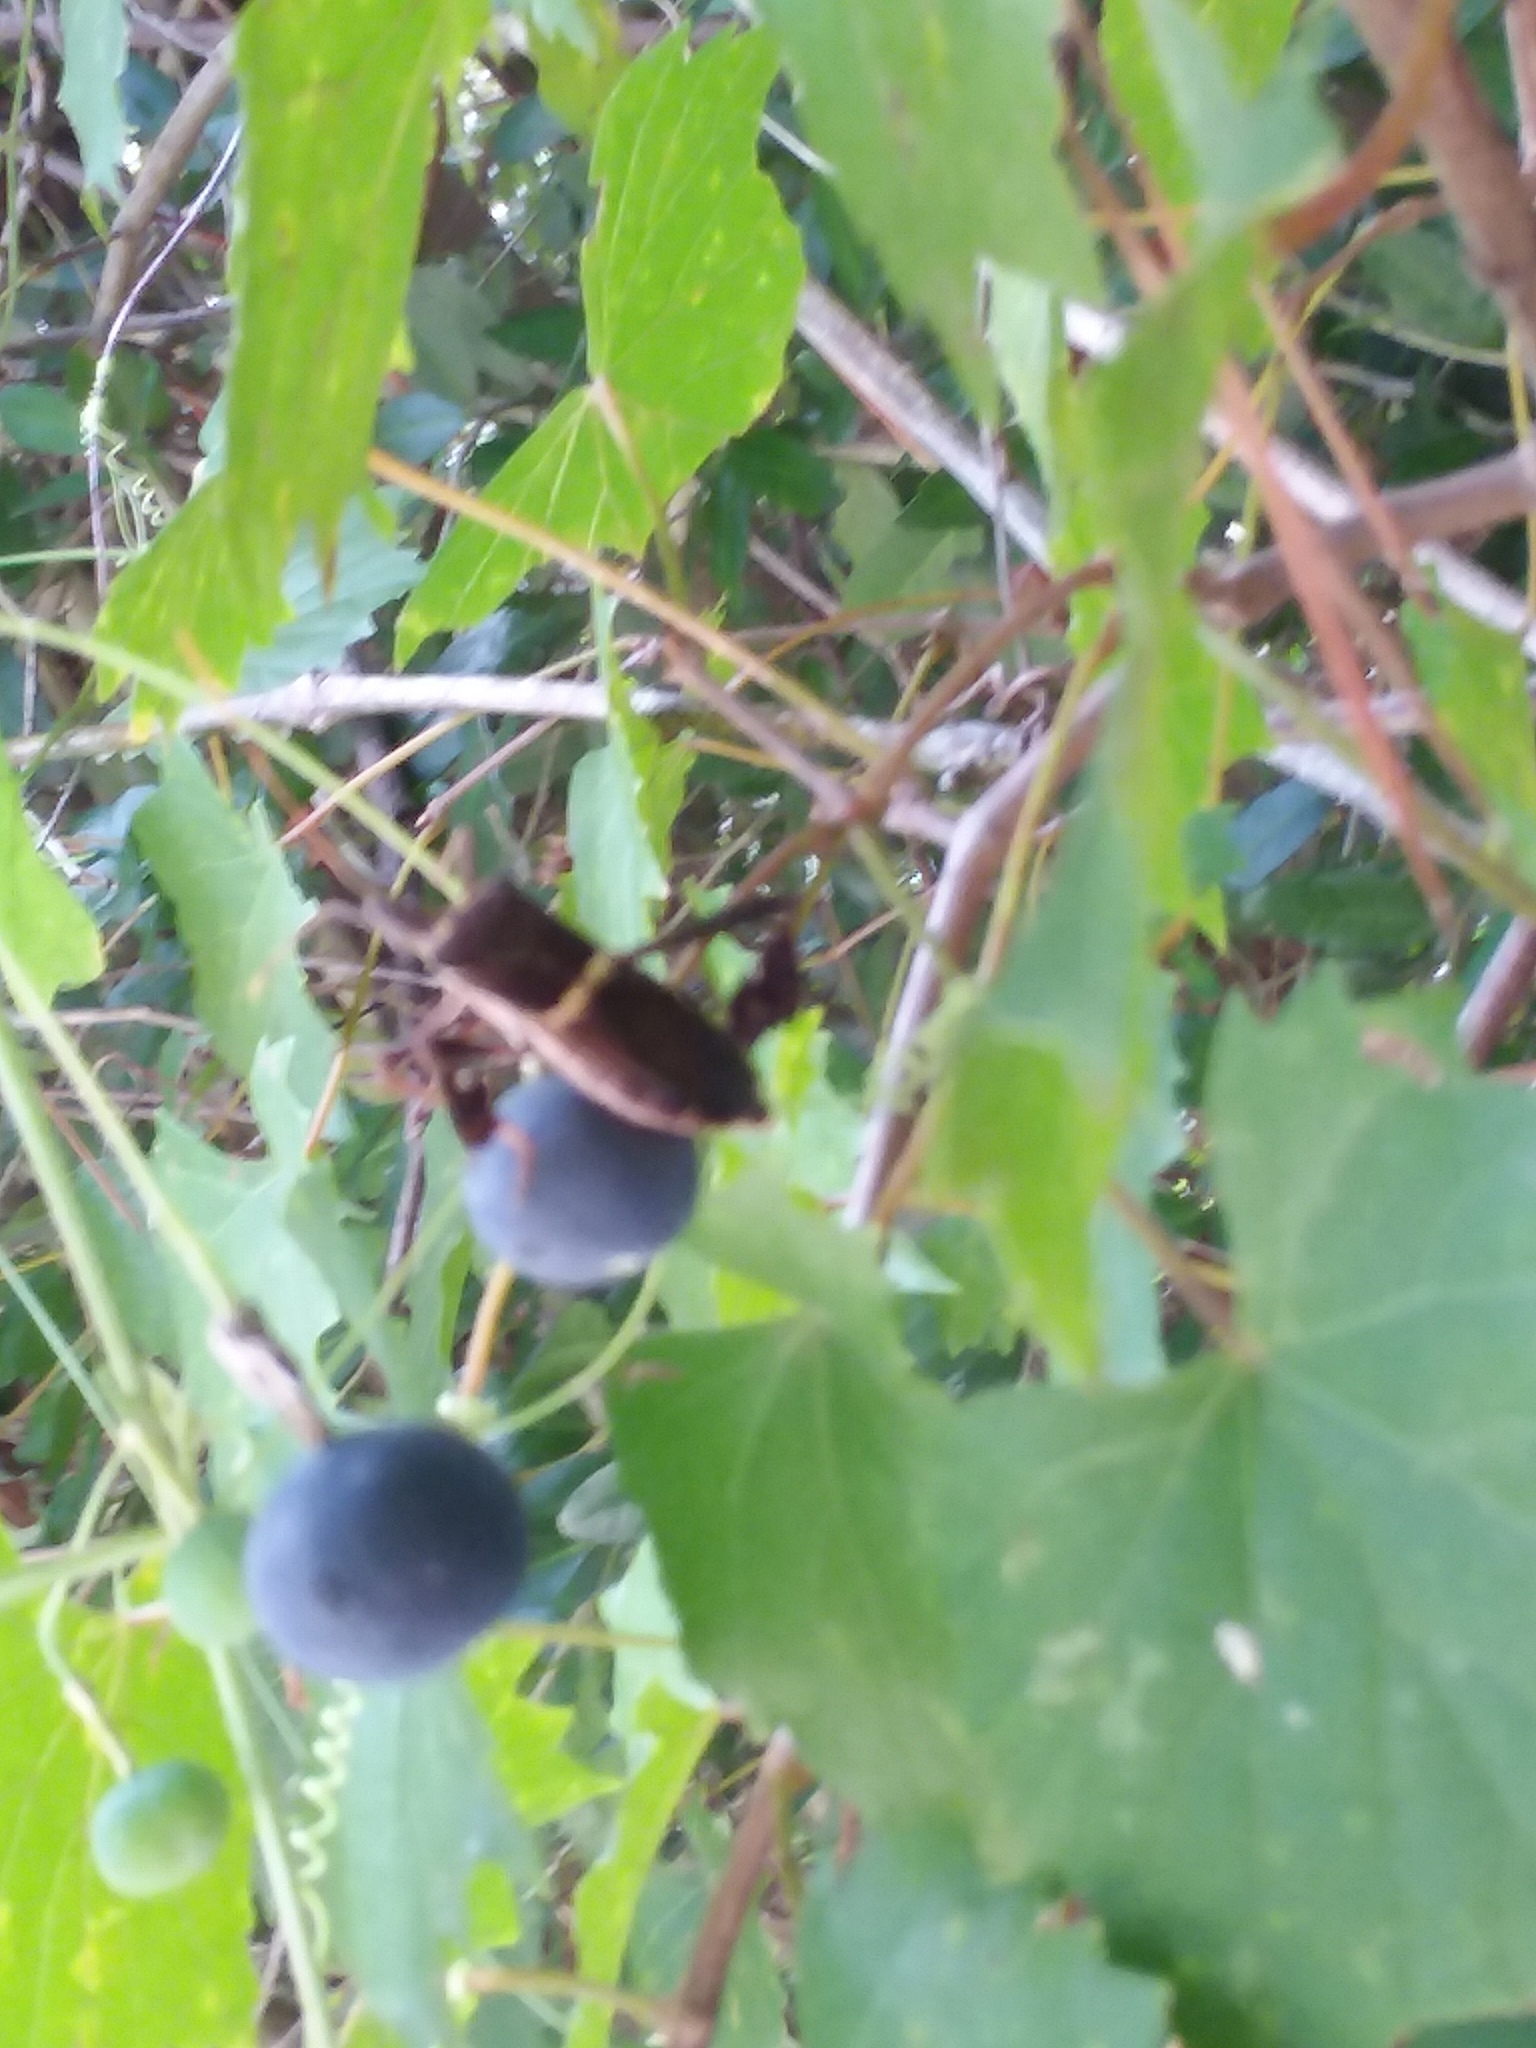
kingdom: Animalia
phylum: Arthropoda
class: Insecta
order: Hemiptera
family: Coreidae
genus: Leptoglossus
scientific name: Leptoglossus zonatus
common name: Large-legged bug
